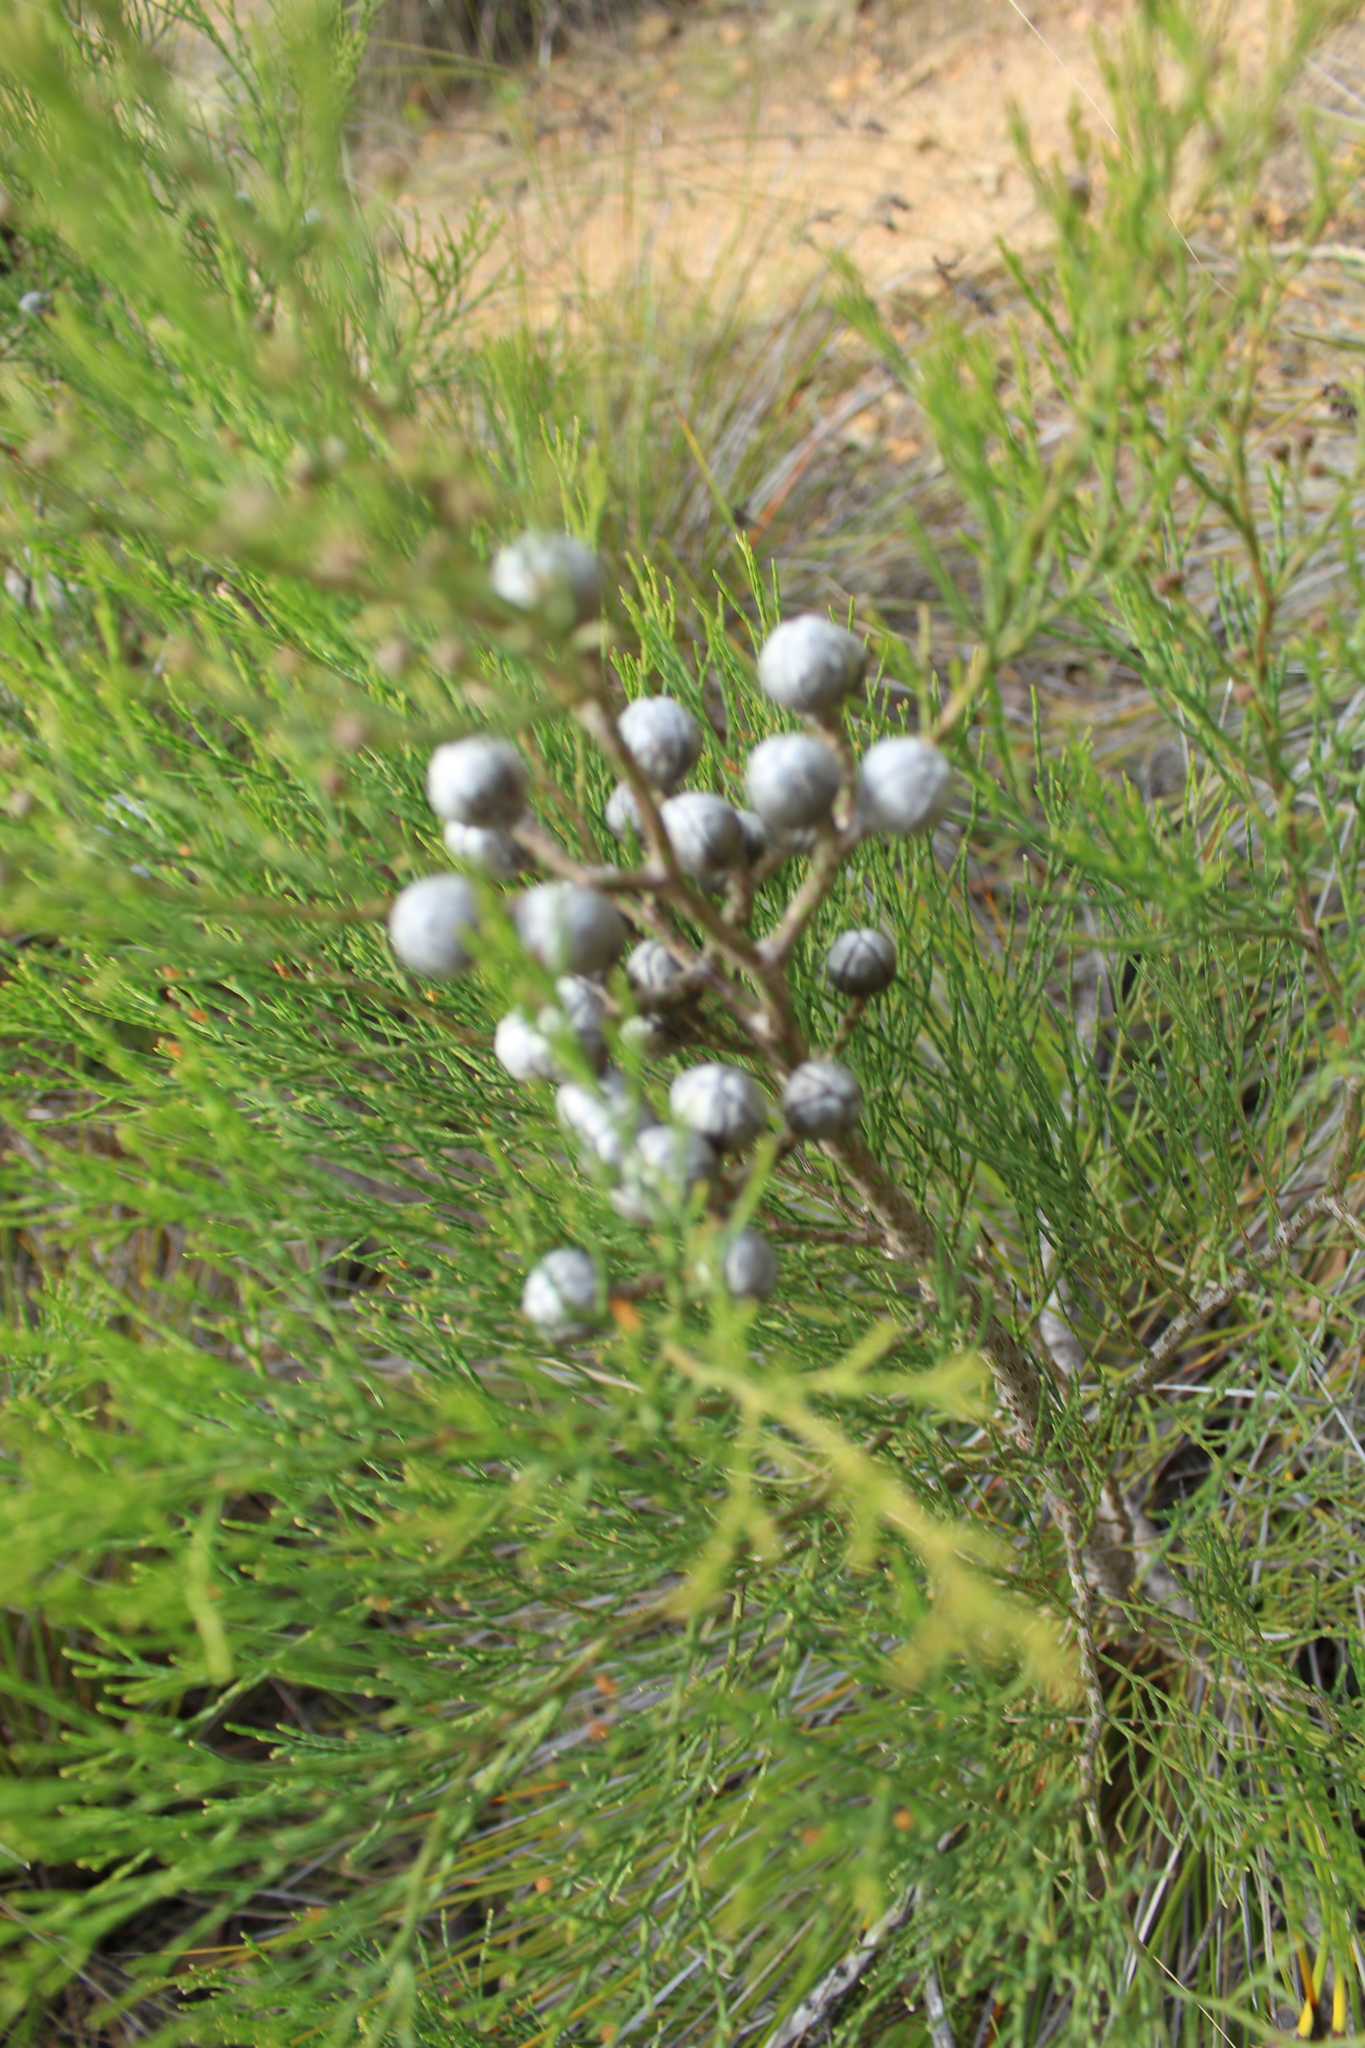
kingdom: Plantae
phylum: Tracheophyta
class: Pinopsida
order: Pinales
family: Cupressaceae
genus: Callitris
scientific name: Callitris drummondii
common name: Drummond's cypress-pine
